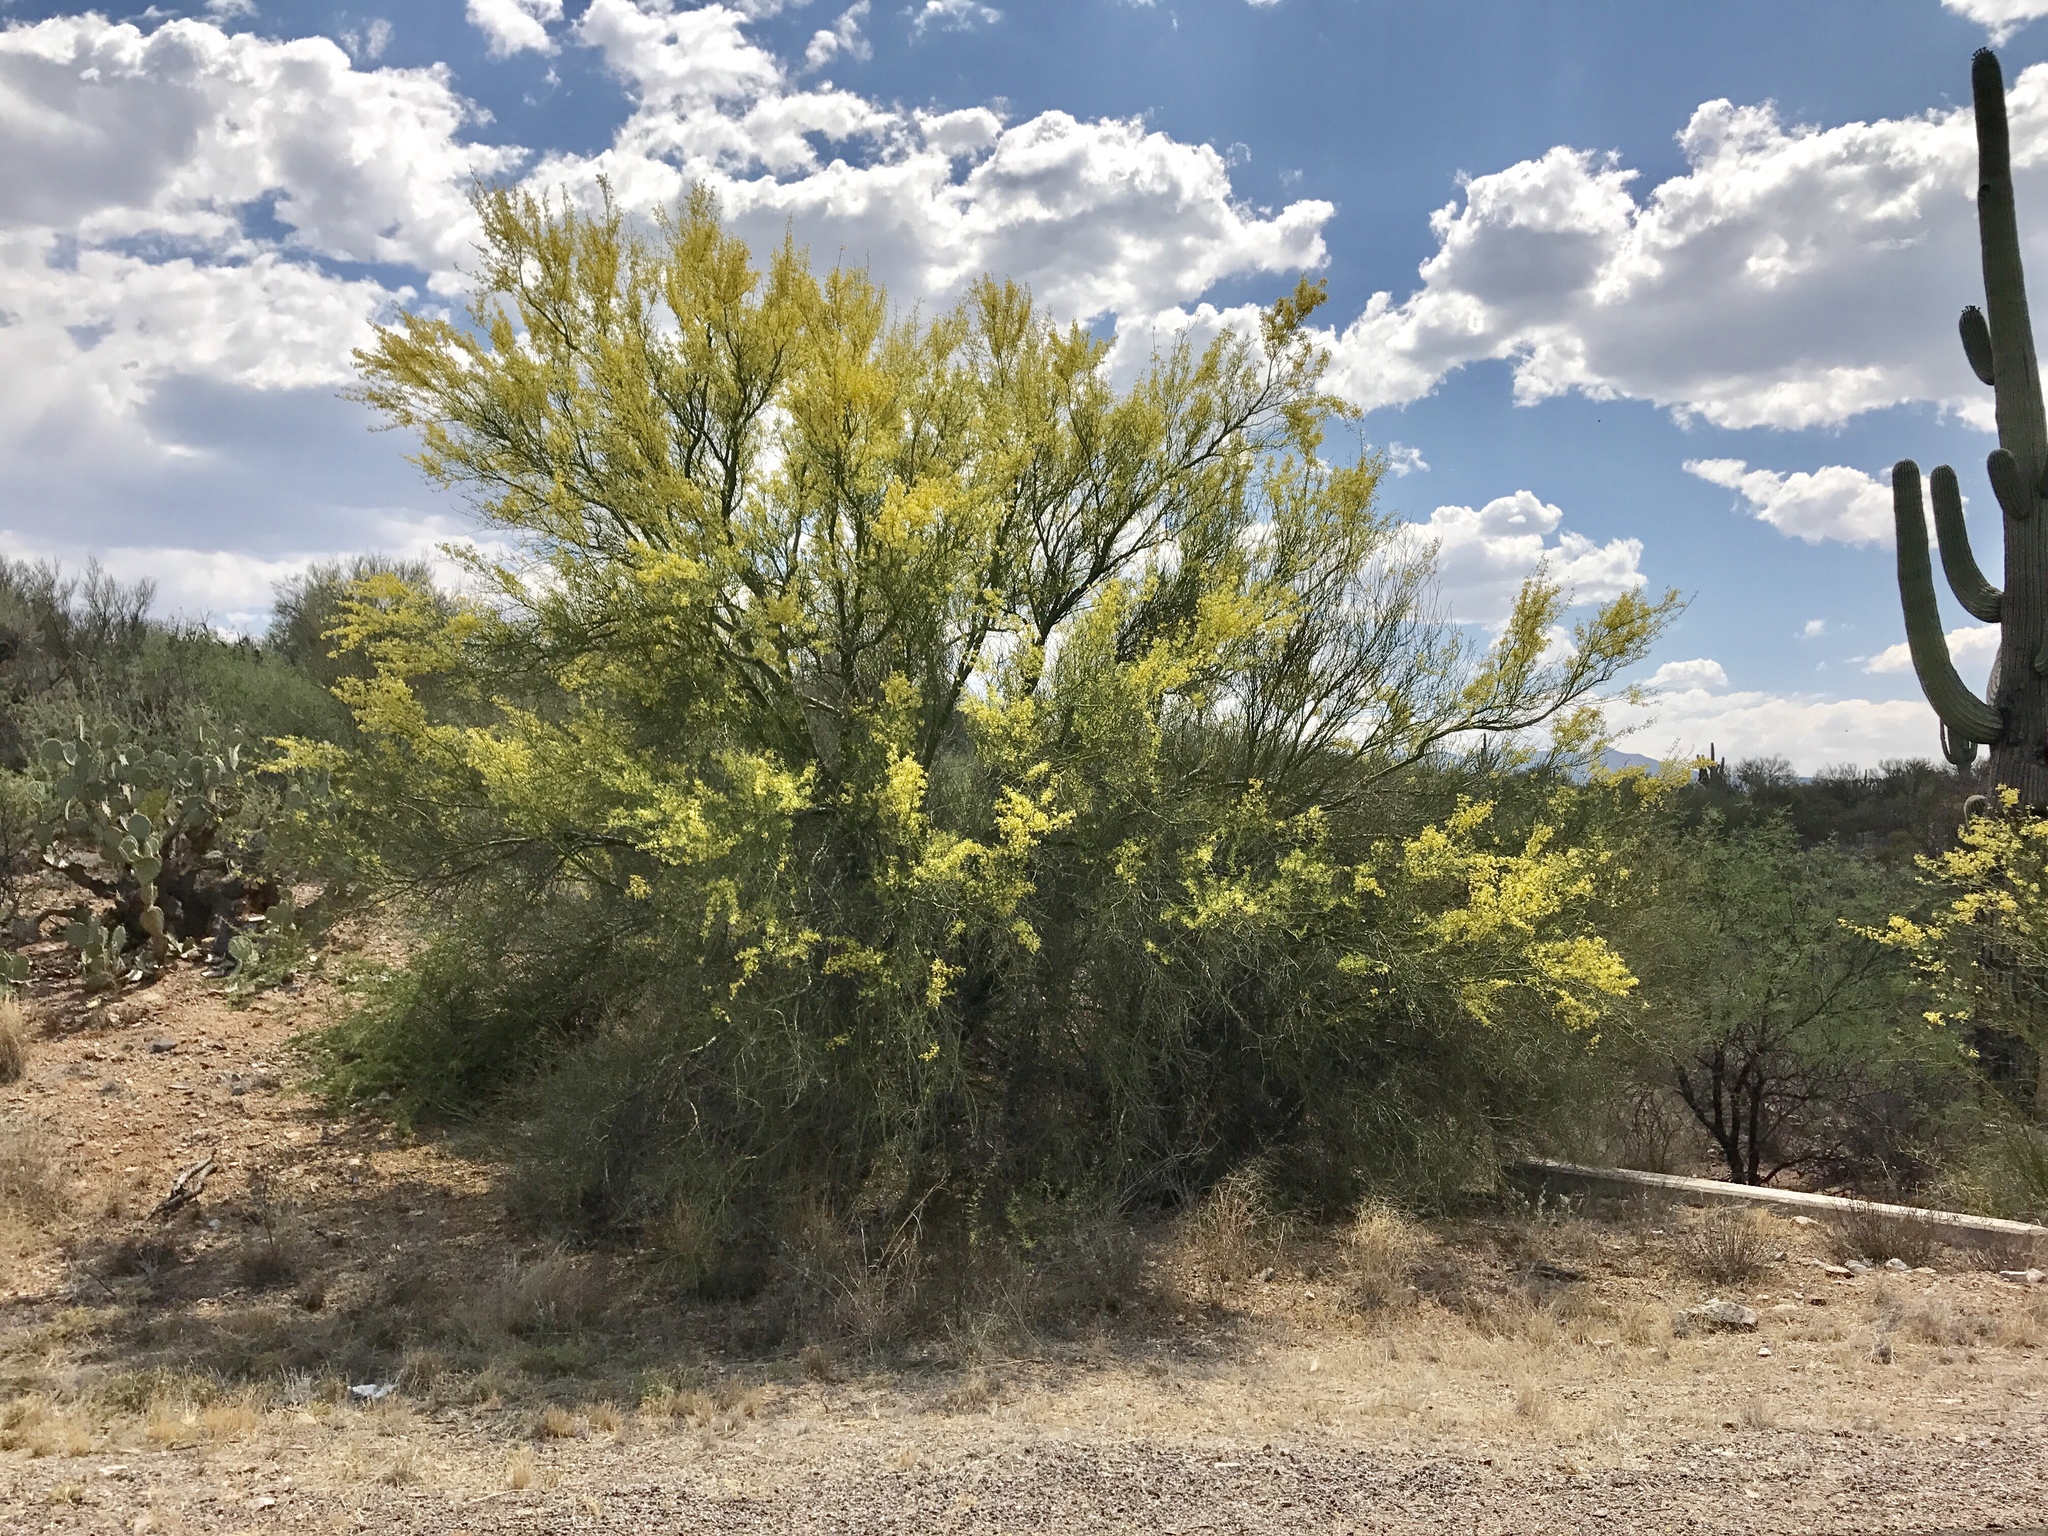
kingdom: Plantae
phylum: Tracheophyta
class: Magnoliopsida
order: Caryophyllales
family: Cactaceae
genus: Carnegiea
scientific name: Carnegiea gigantea
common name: Saguaro
